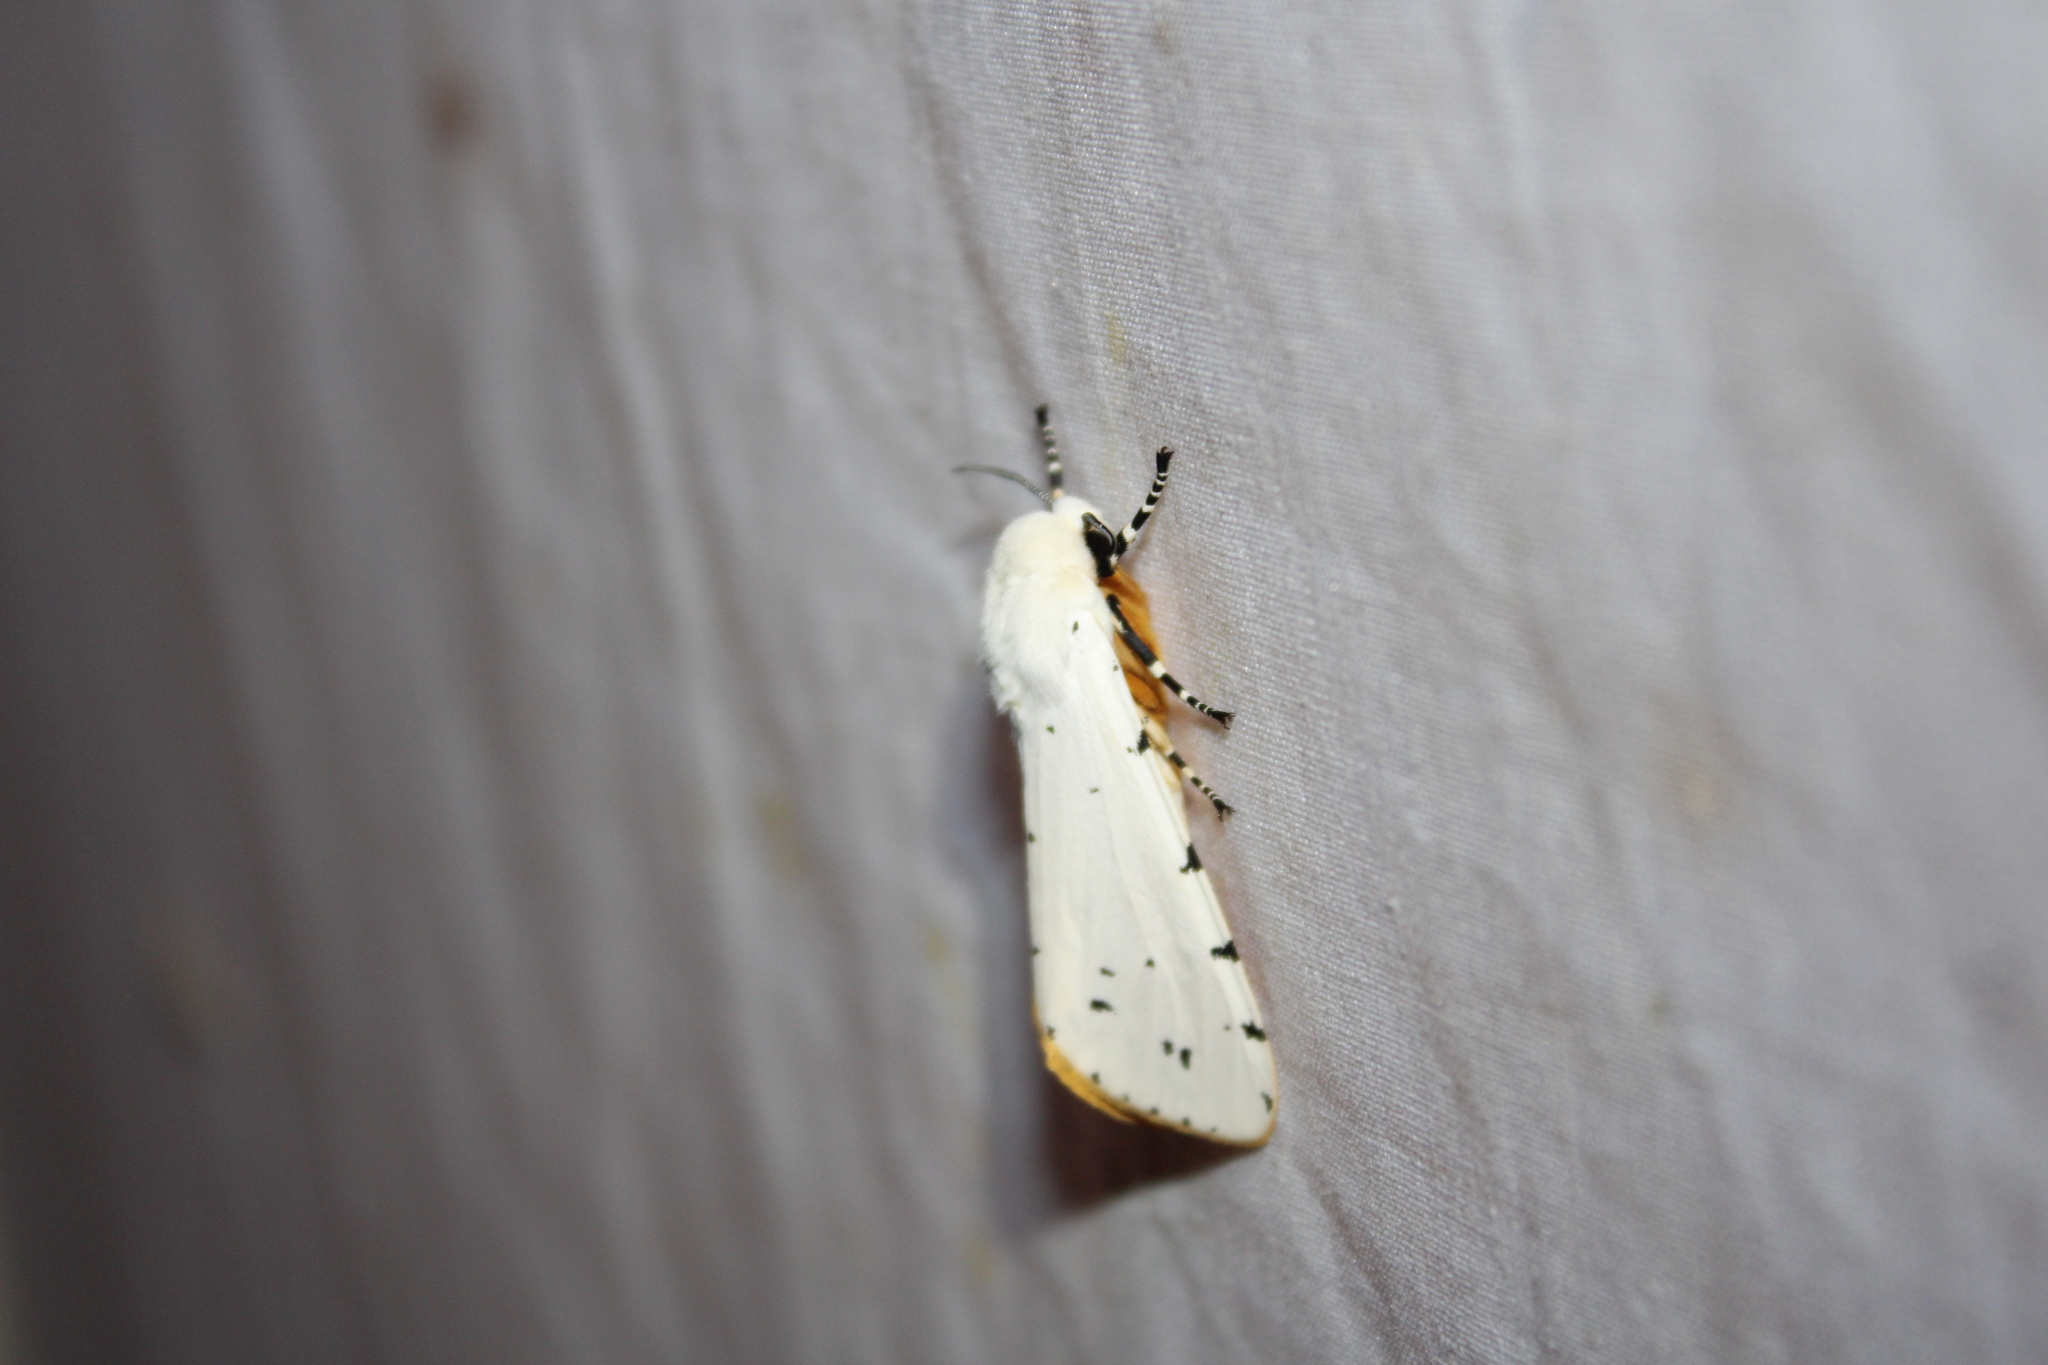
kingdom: Animalia
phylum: Arthropoda
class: Insecta
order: Lepidoptera
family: Erebidae
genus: Estigmene
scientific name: Estigmene acrea
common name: Salt marsh moth
